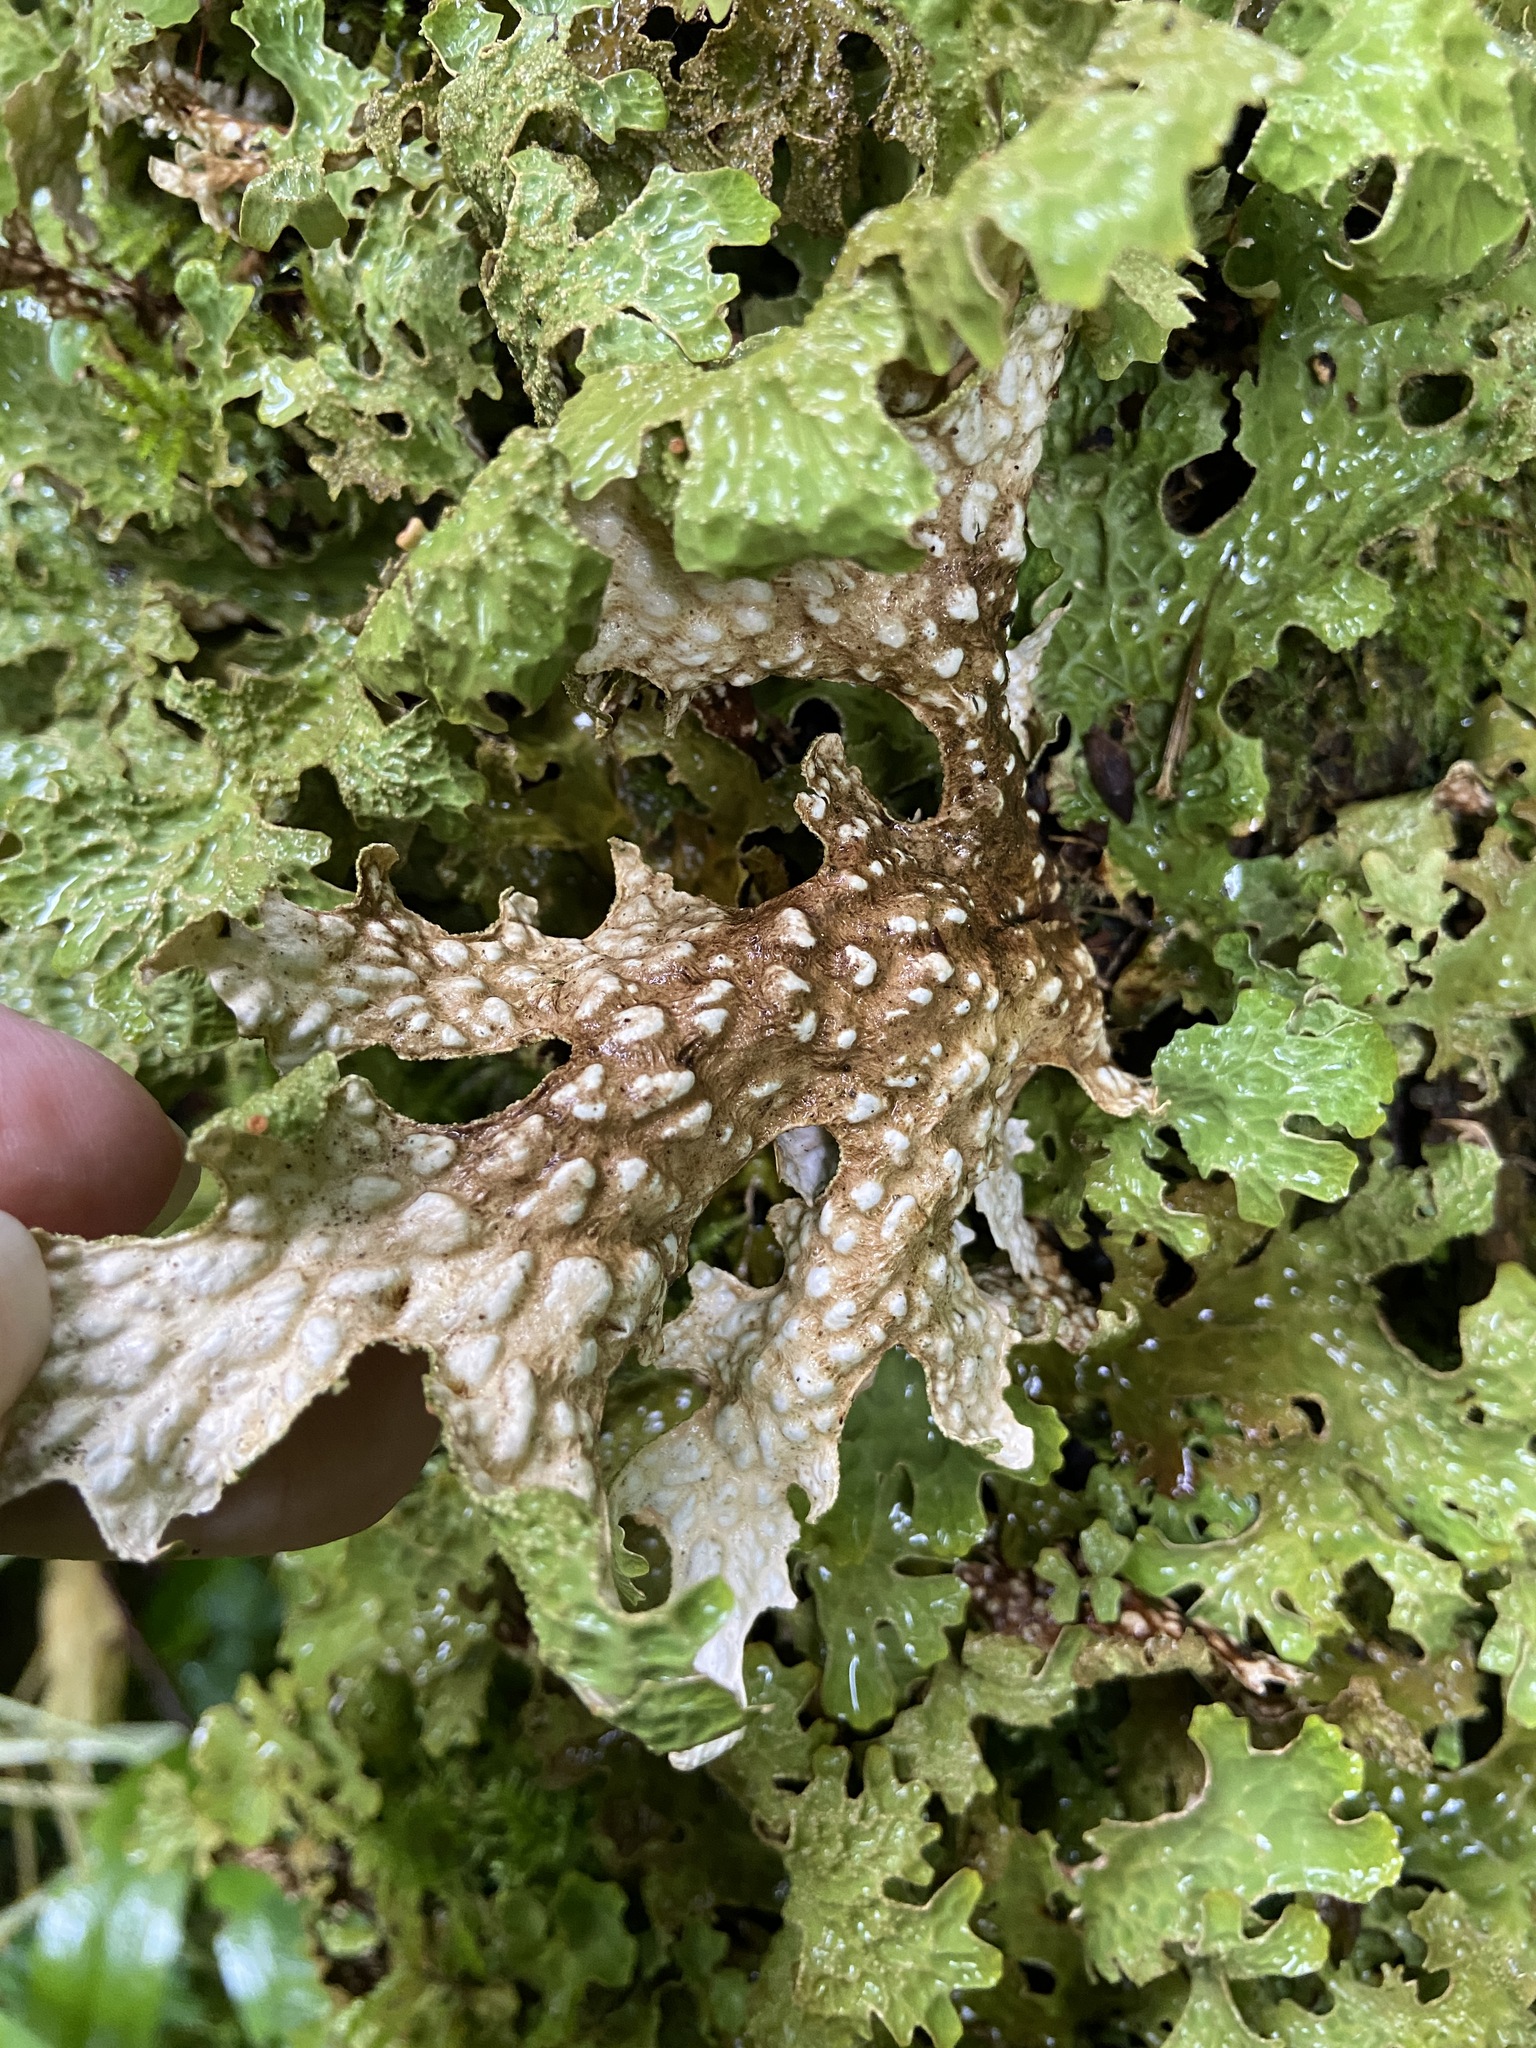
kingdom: Fungi
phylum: Ascomycota
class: Lecanoromycetes
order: Peltigerales
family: Lobariaceae
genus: Lobaria
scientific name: Lobaria pulmonaria
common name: Lungwort
